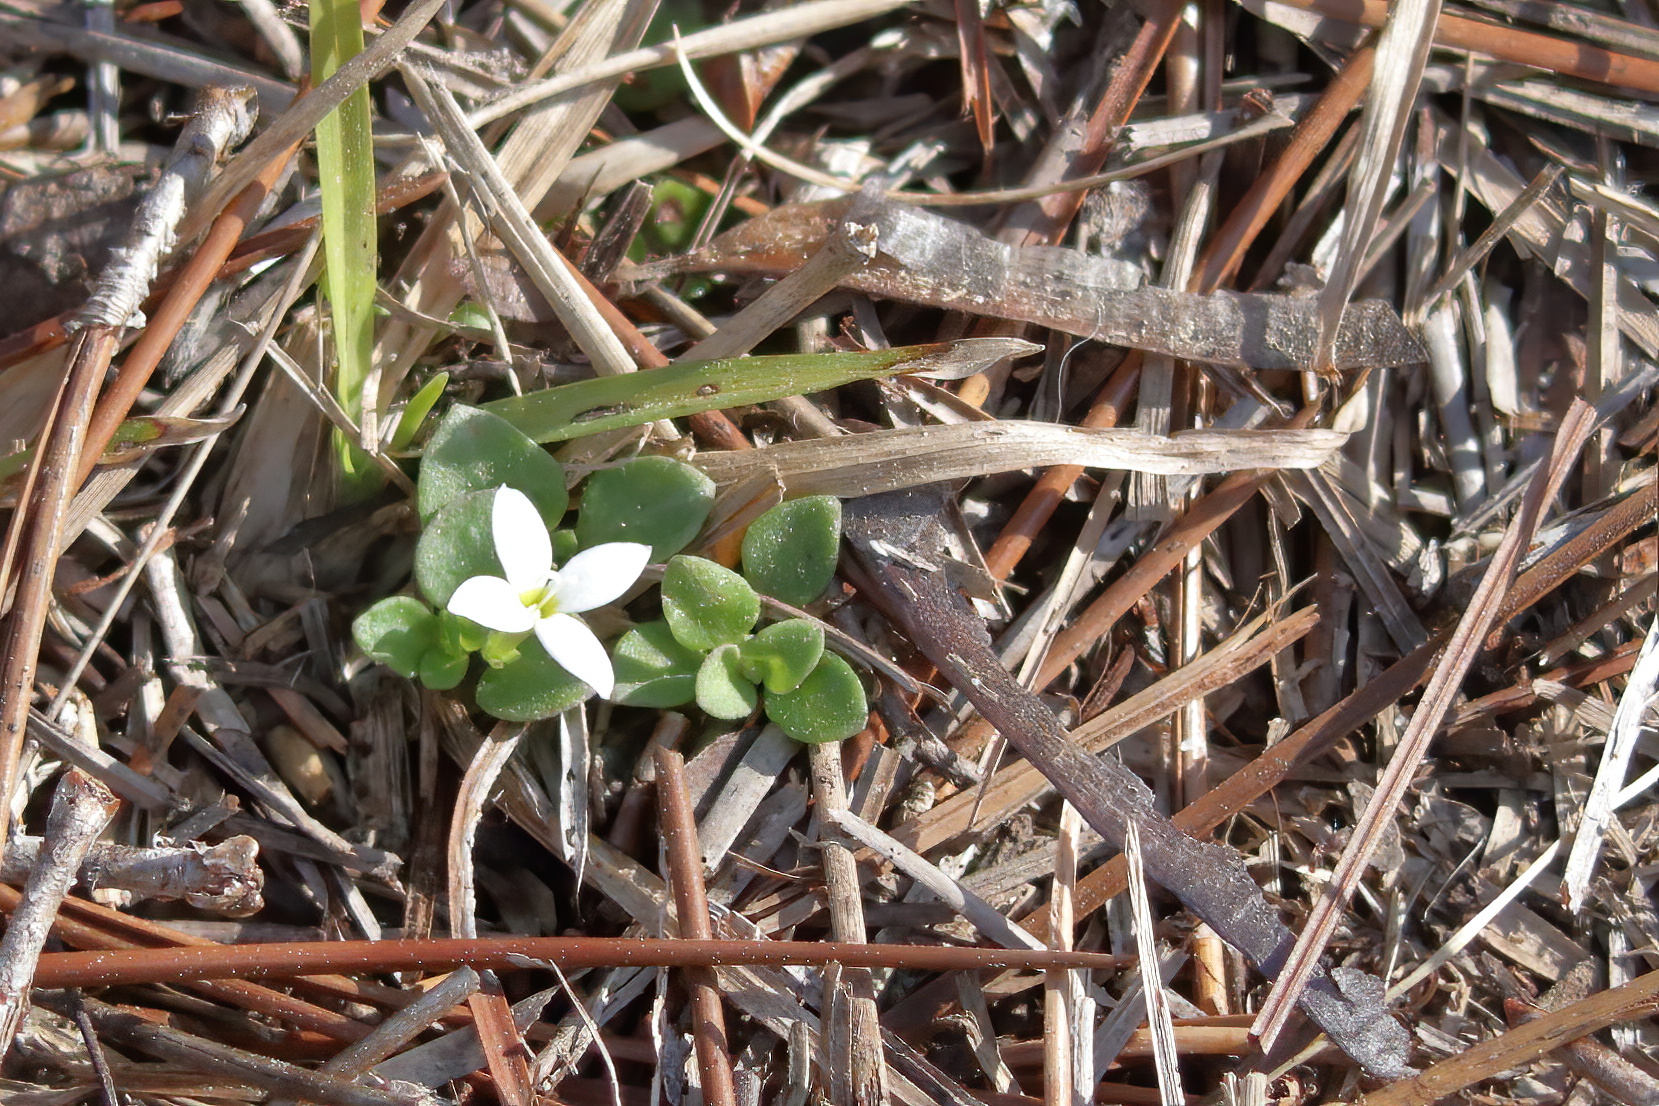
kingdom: Plantae
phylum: Tracheophyta
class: Magnoliopsida
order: Gentianales
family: Rubiaceae
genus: Houstonia
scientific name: Houstonia procumbens
